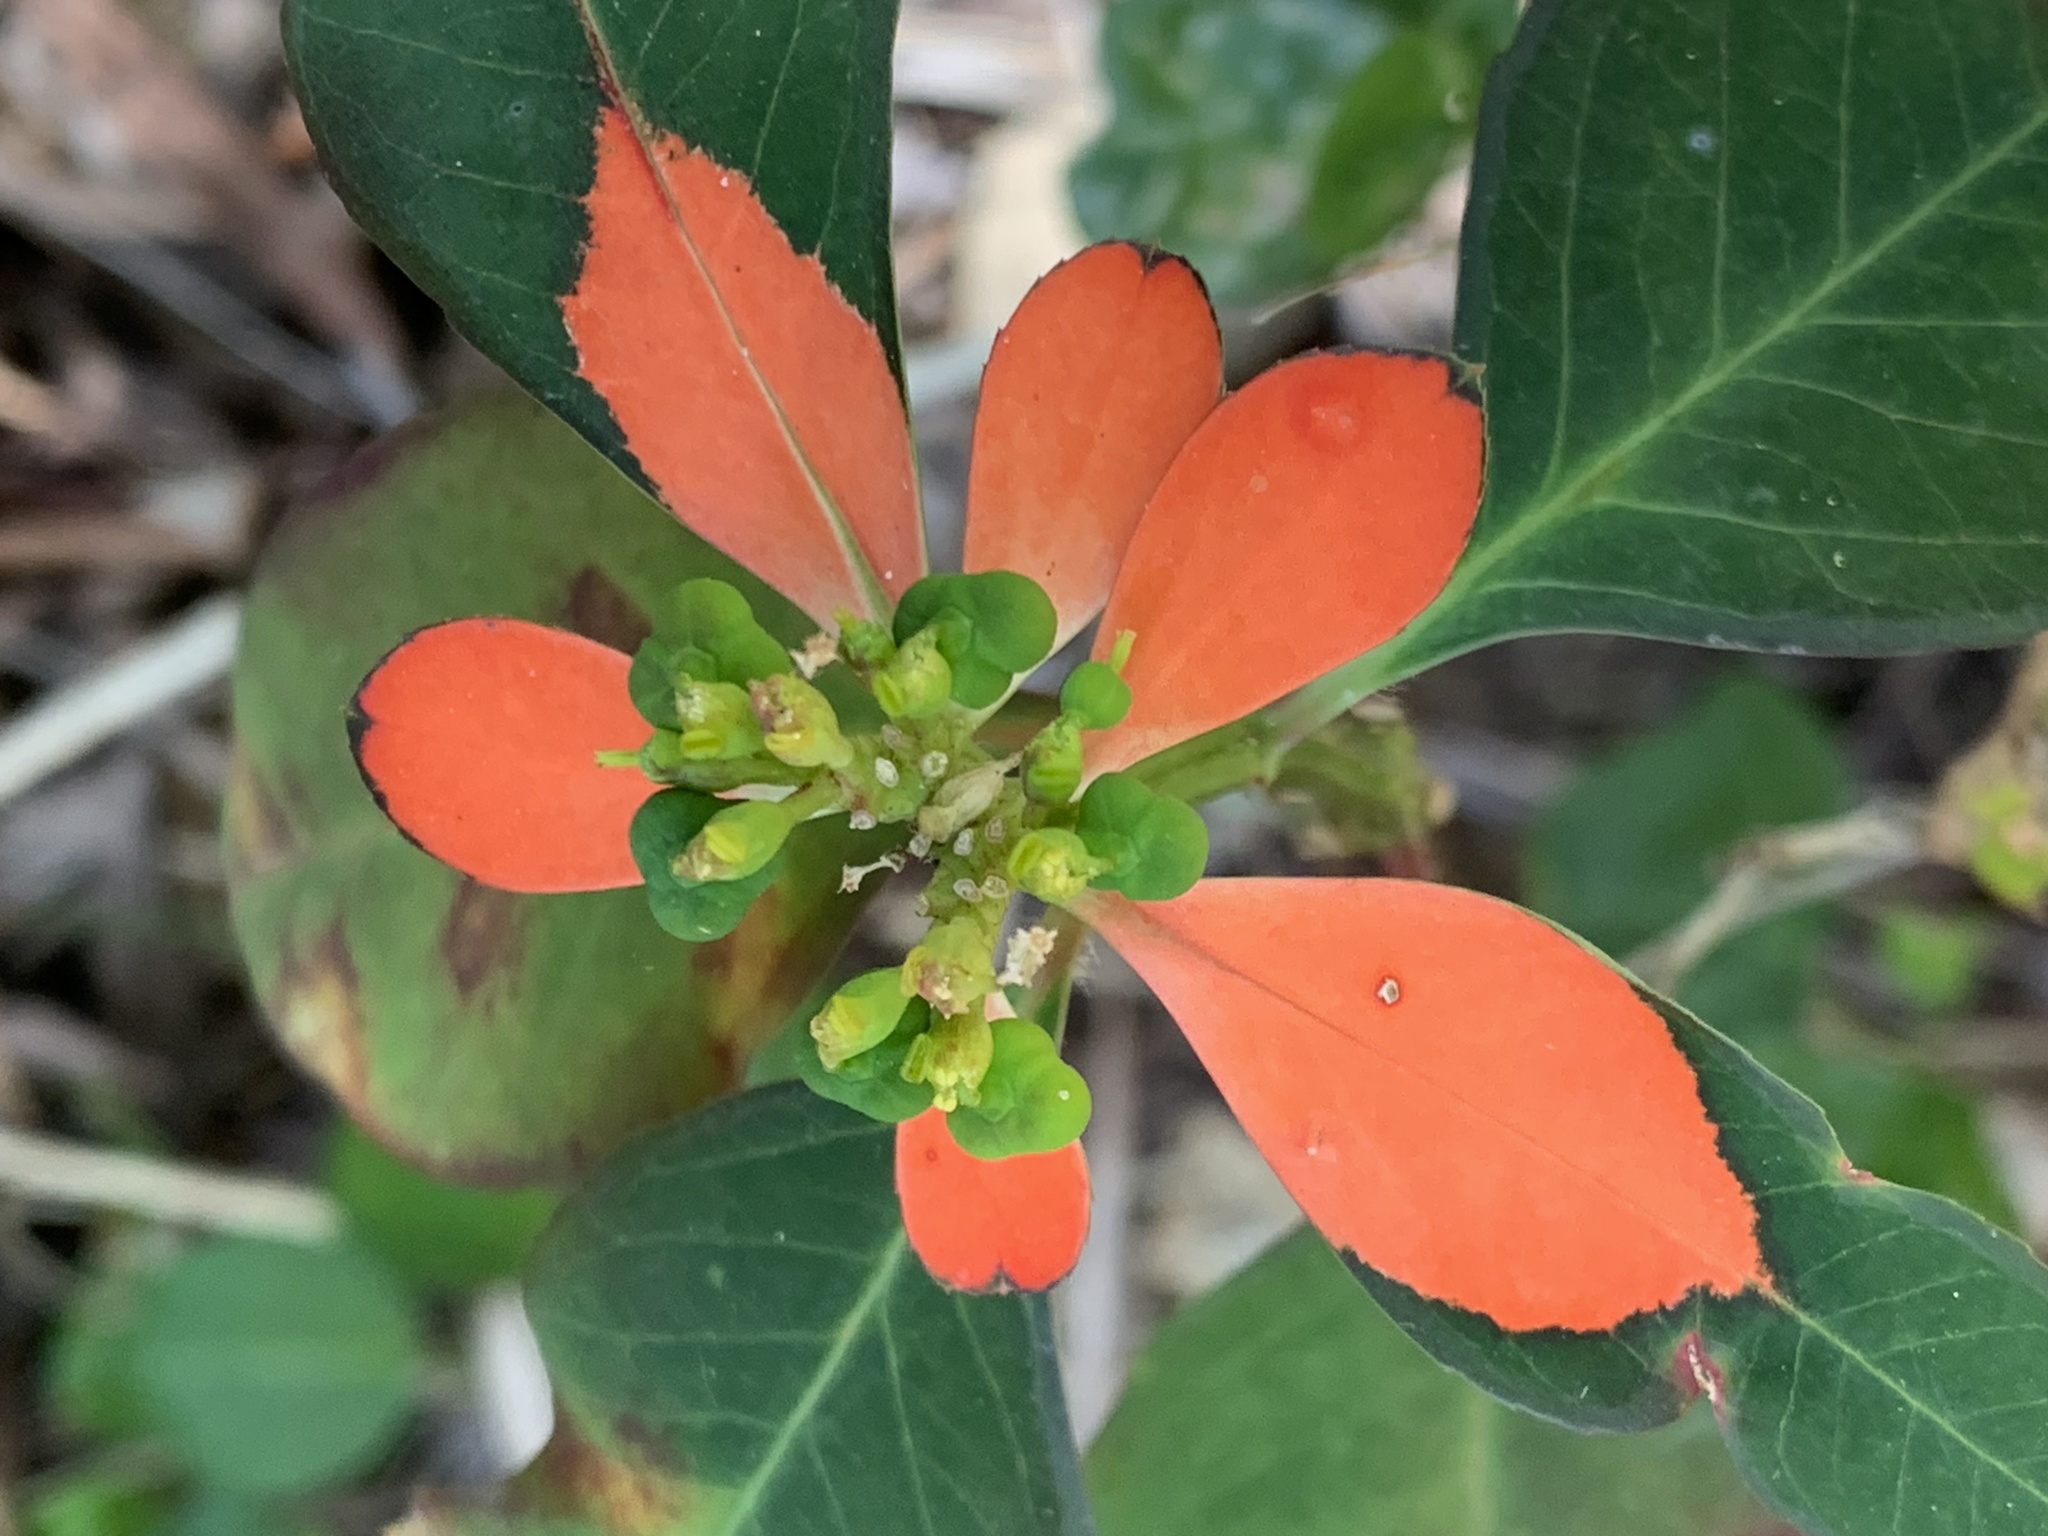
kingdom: Plantae
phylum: Tracheophyta
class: Magnoliopsida
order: Malpighiales
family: Euphorbiaceae
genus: Euphorbia
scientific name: Euphorbia heterophylla
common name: Mexican fireplant
